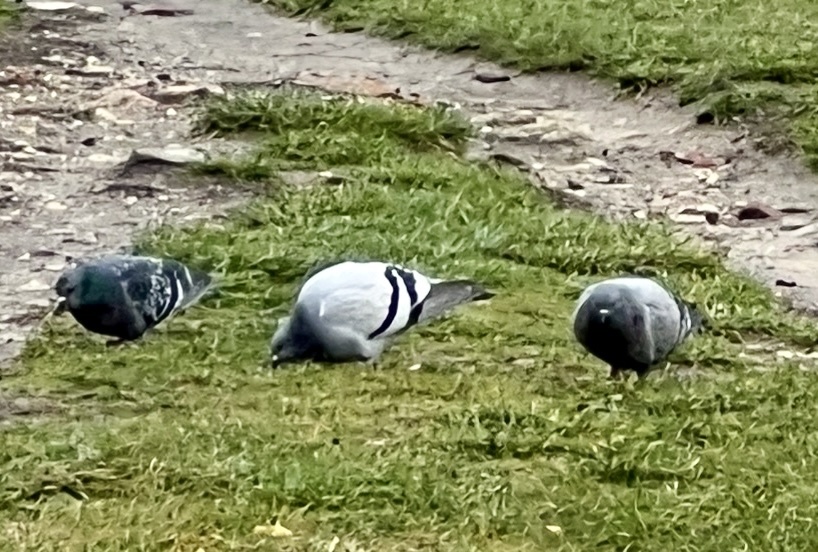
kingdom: Animalia
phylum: Chordata
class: Aves
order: Columbiformes
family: Columbidae
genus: Columba
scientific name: Columba livia
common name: Rock pigeon
